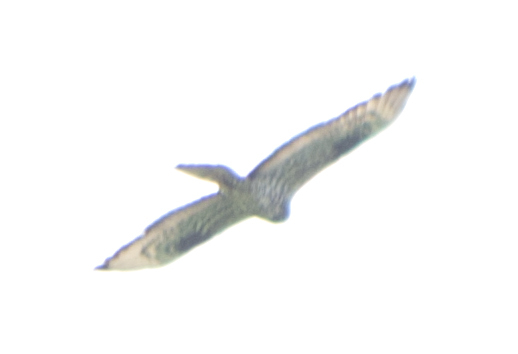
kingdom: Animalia
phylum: Chordata
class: Aves
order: Accipitriformes
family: Accipitridae
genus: Pernis
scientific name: Pernis apivorus
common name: European honey buzzard
